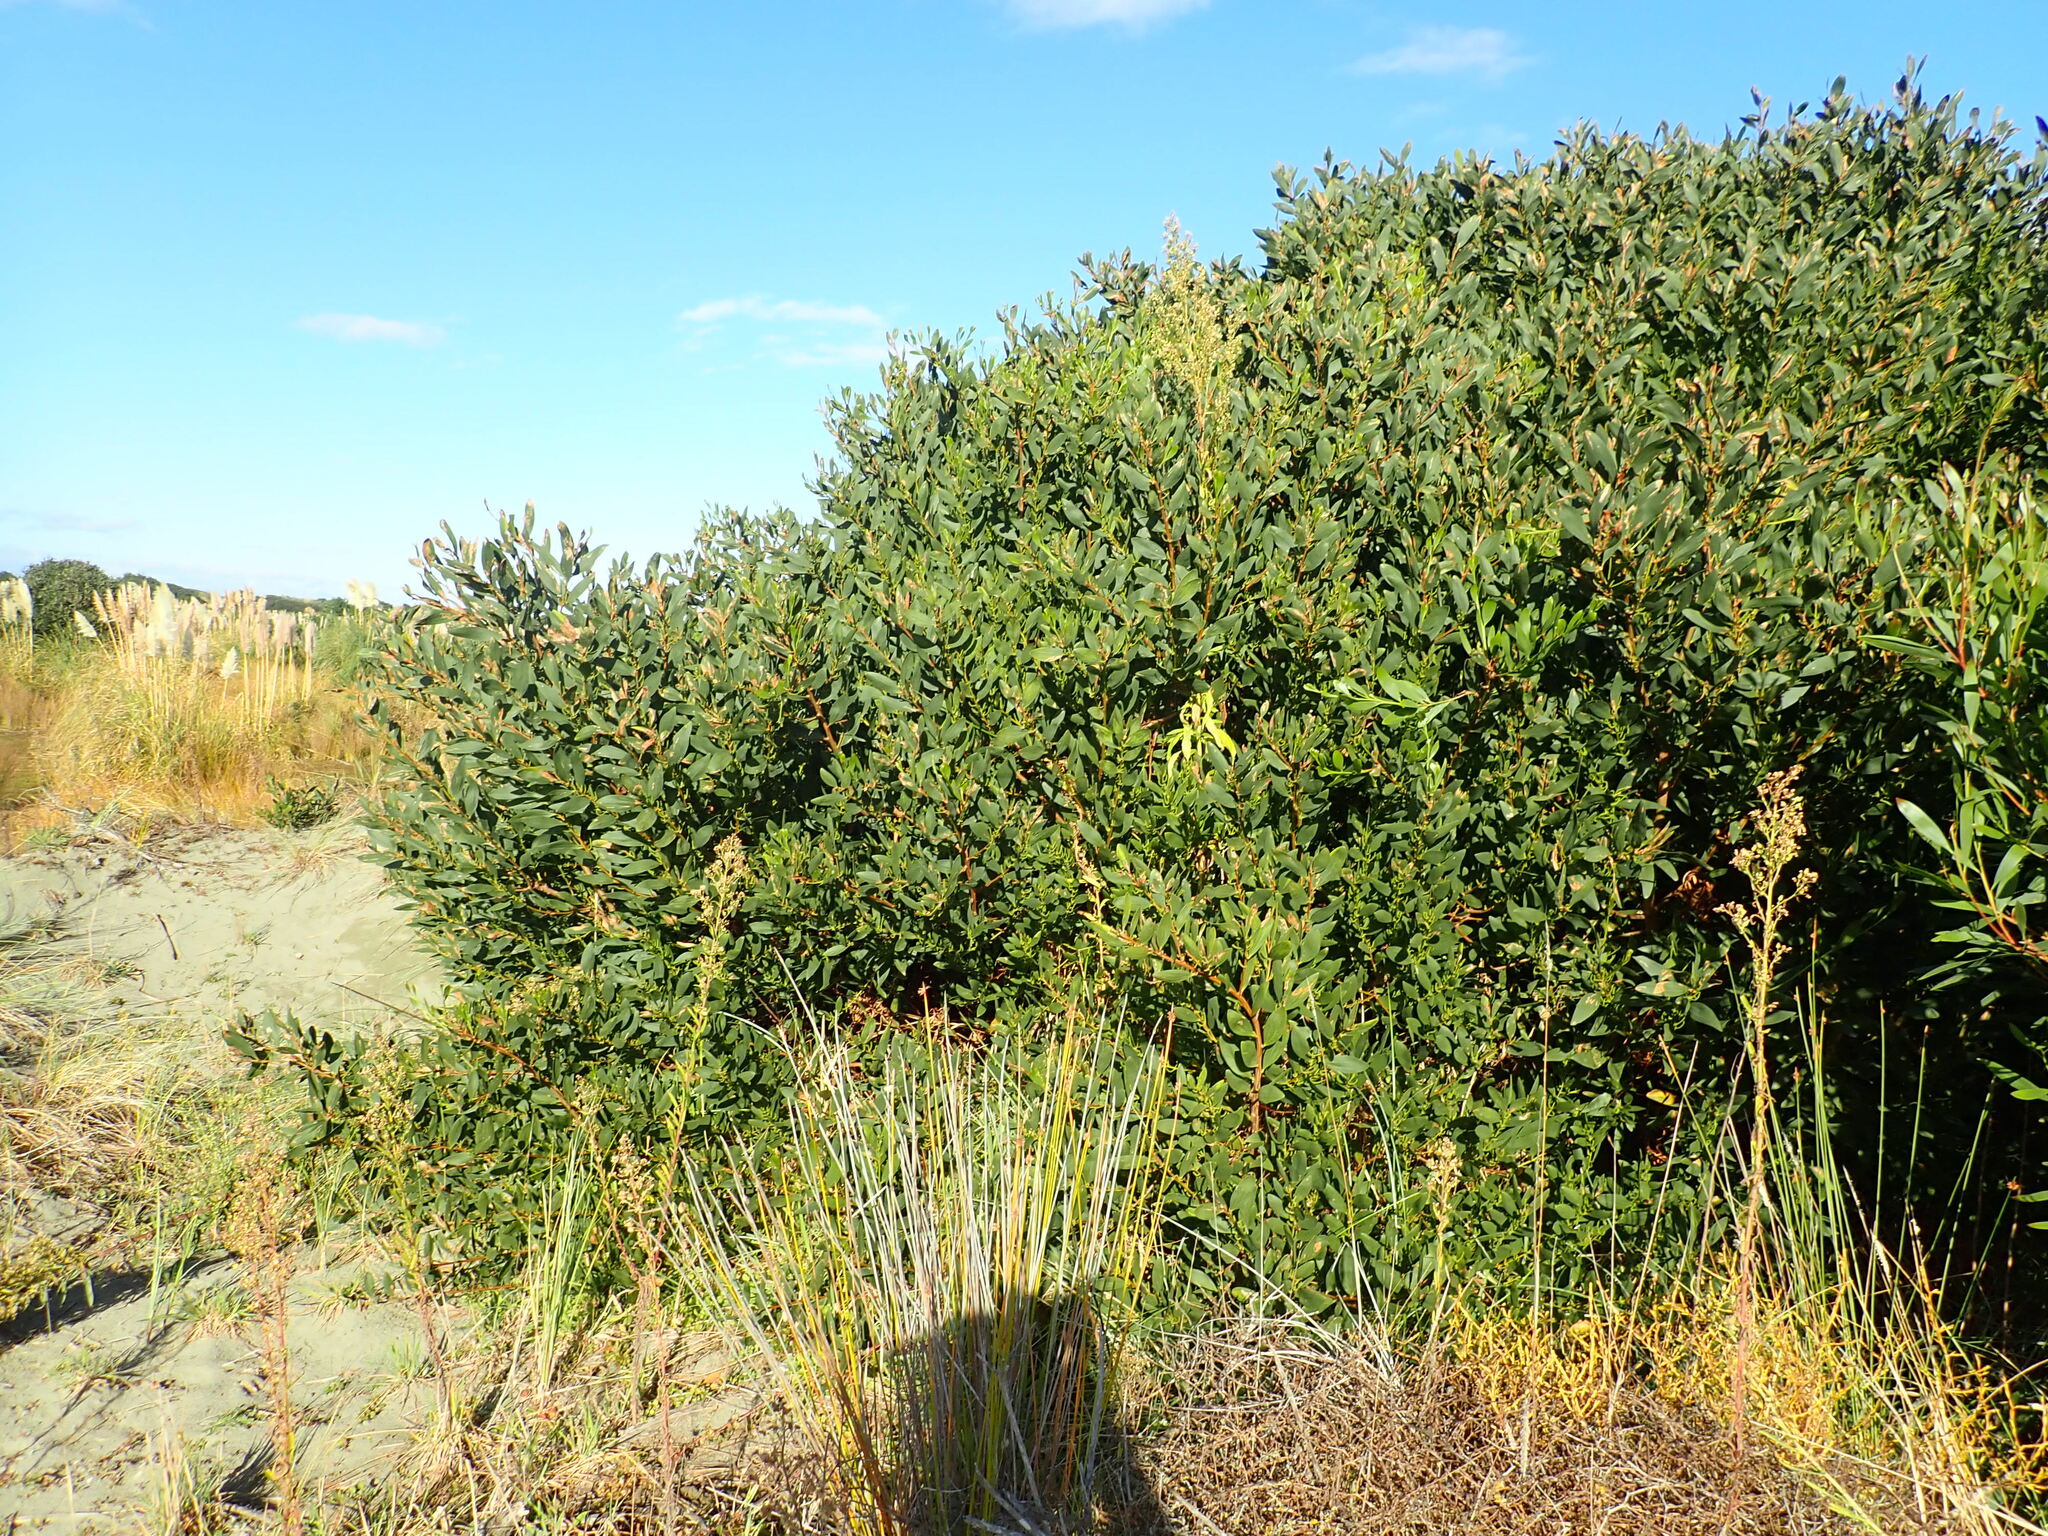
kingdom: Plantae
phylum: Tracheophyta
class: Magnoliopsida
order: Asterales
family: Asteraceae
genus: Erigeron
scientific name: Erigeron sumatrensis
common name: Daisy
